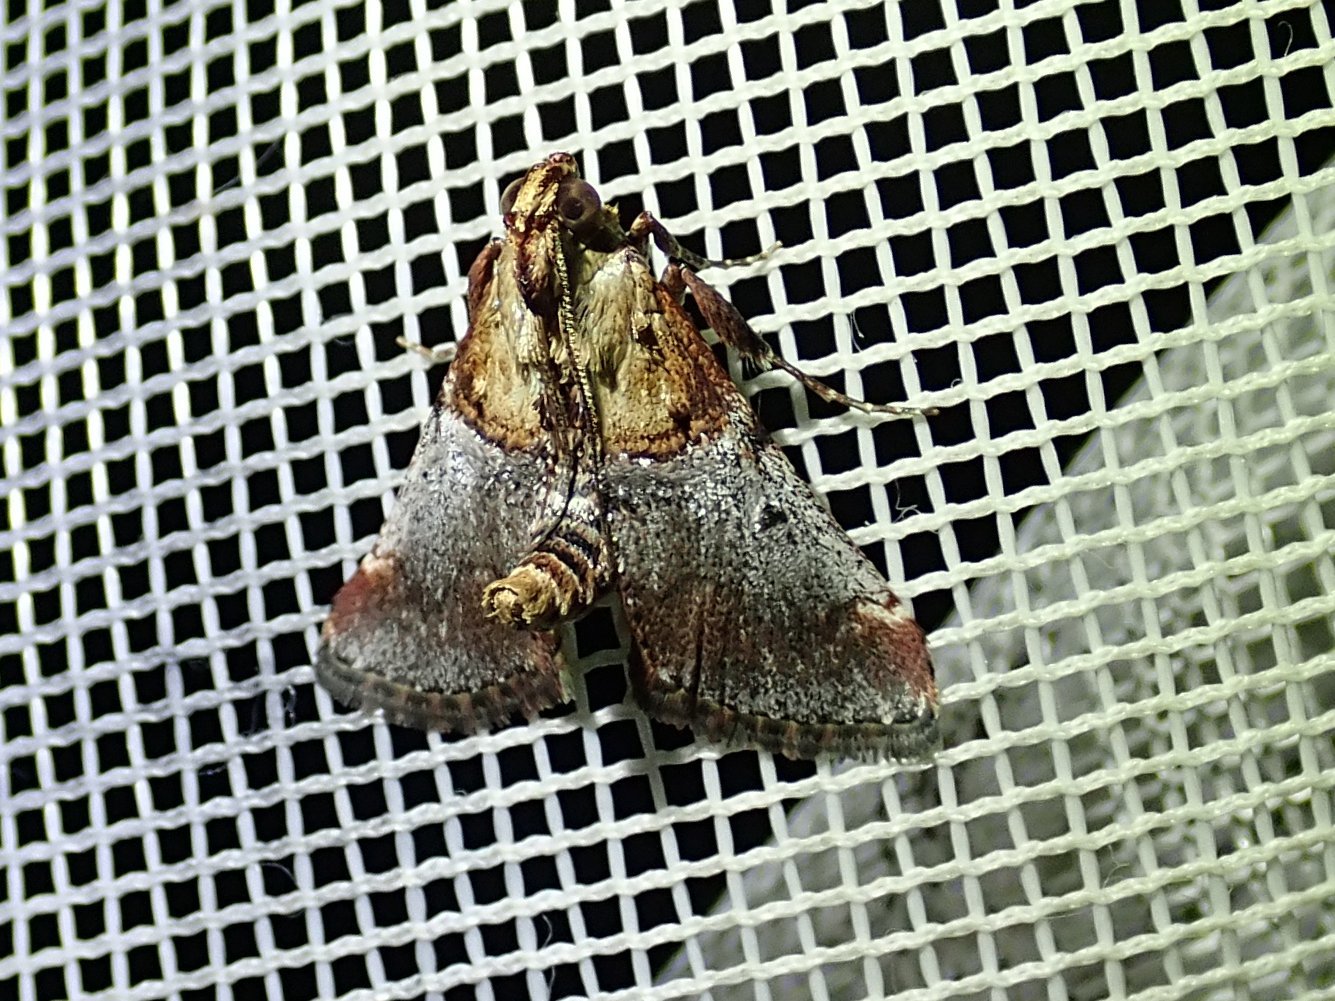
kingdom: Animalia
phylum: Arthropoda
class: Insecta
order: Lepidoptera
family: Pyralidae
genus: Cacozelia
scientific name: Cacozelia basiochrealis
